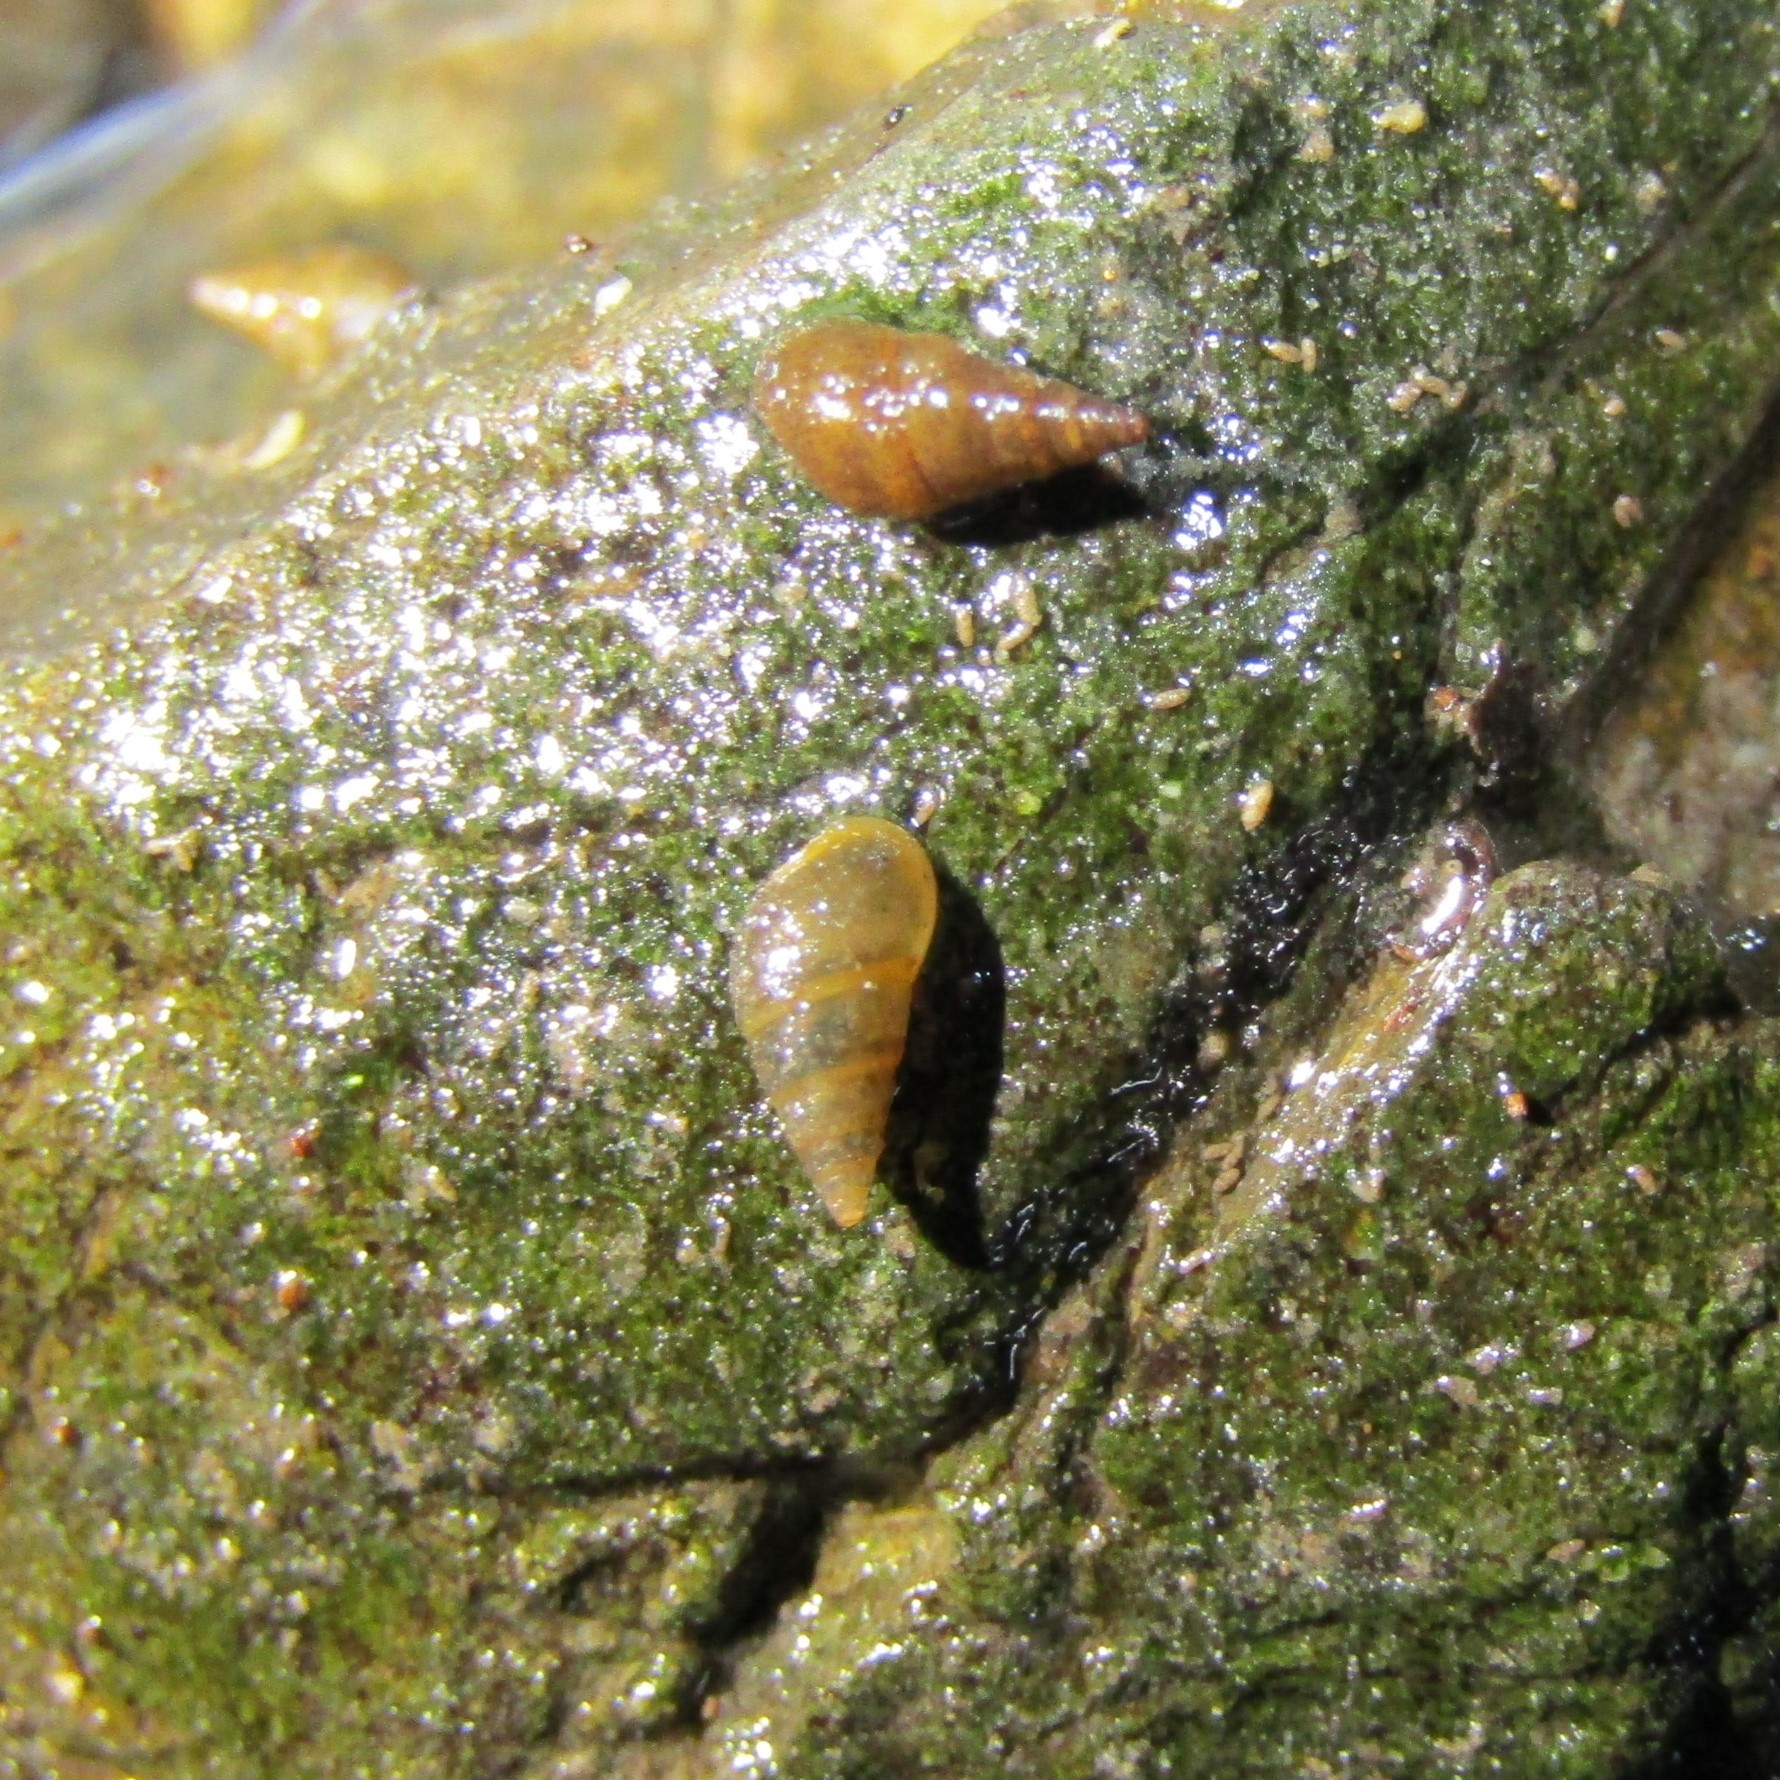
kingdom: Animalia
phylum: Mollusca
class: Gastropoda
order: Littorinimorpha
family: Tateidae
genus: Potamopyrgus
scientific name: Potamopyrgus antipodarum
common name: Jenkins' spire snail
